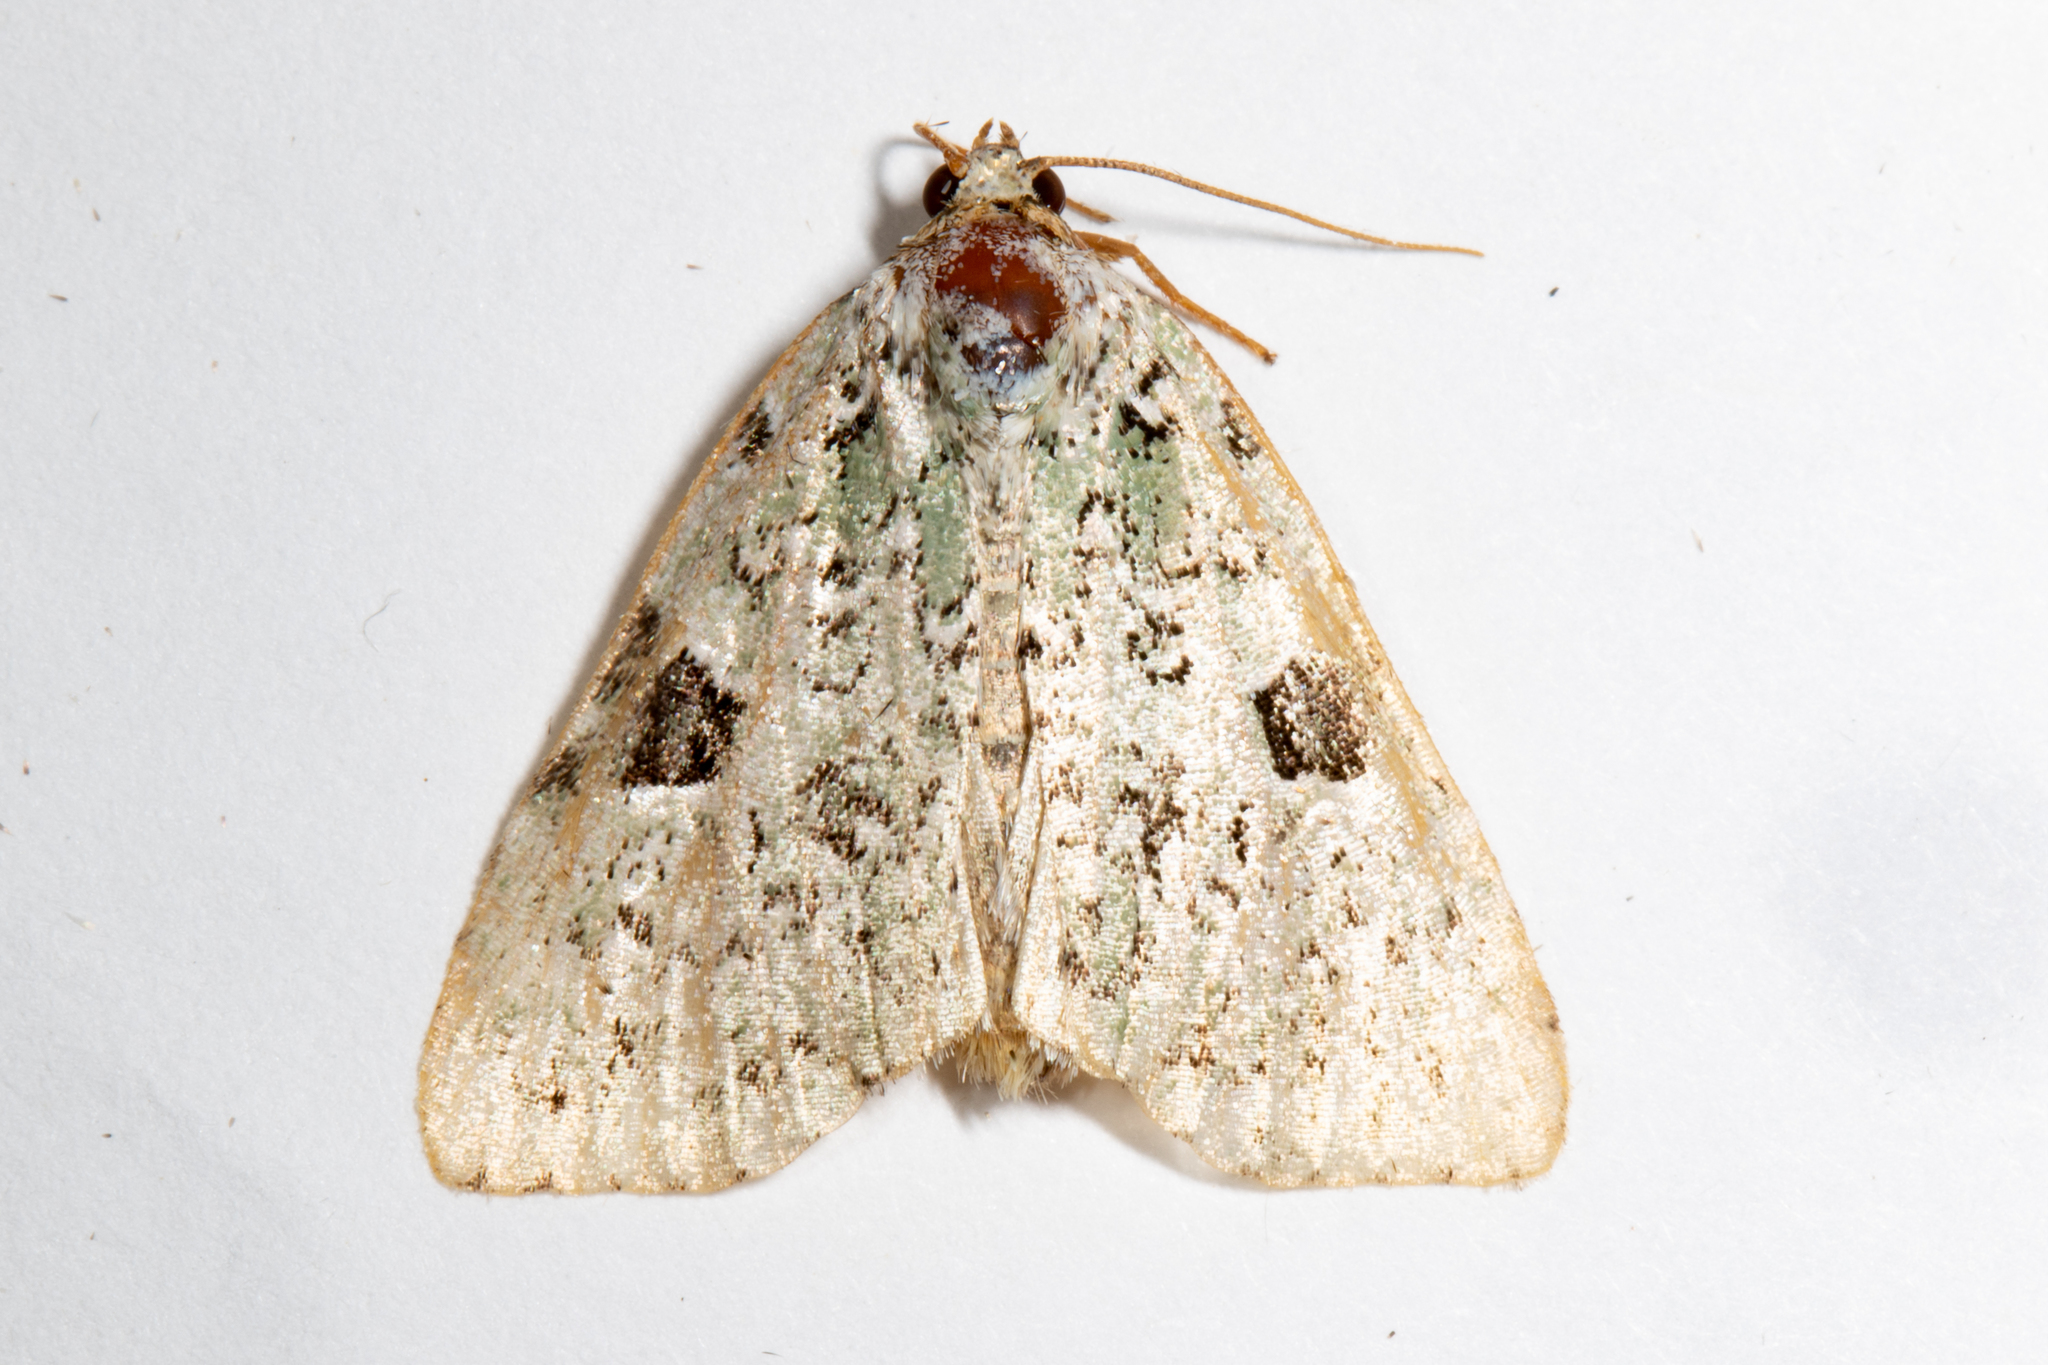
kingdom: Animalia
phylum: Arthropoda
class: Insecta
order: Lepidoptera
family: Noctuidae
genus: Leuconycta
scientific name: Leuconycta diphteroides
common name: Green leuconycta moth
